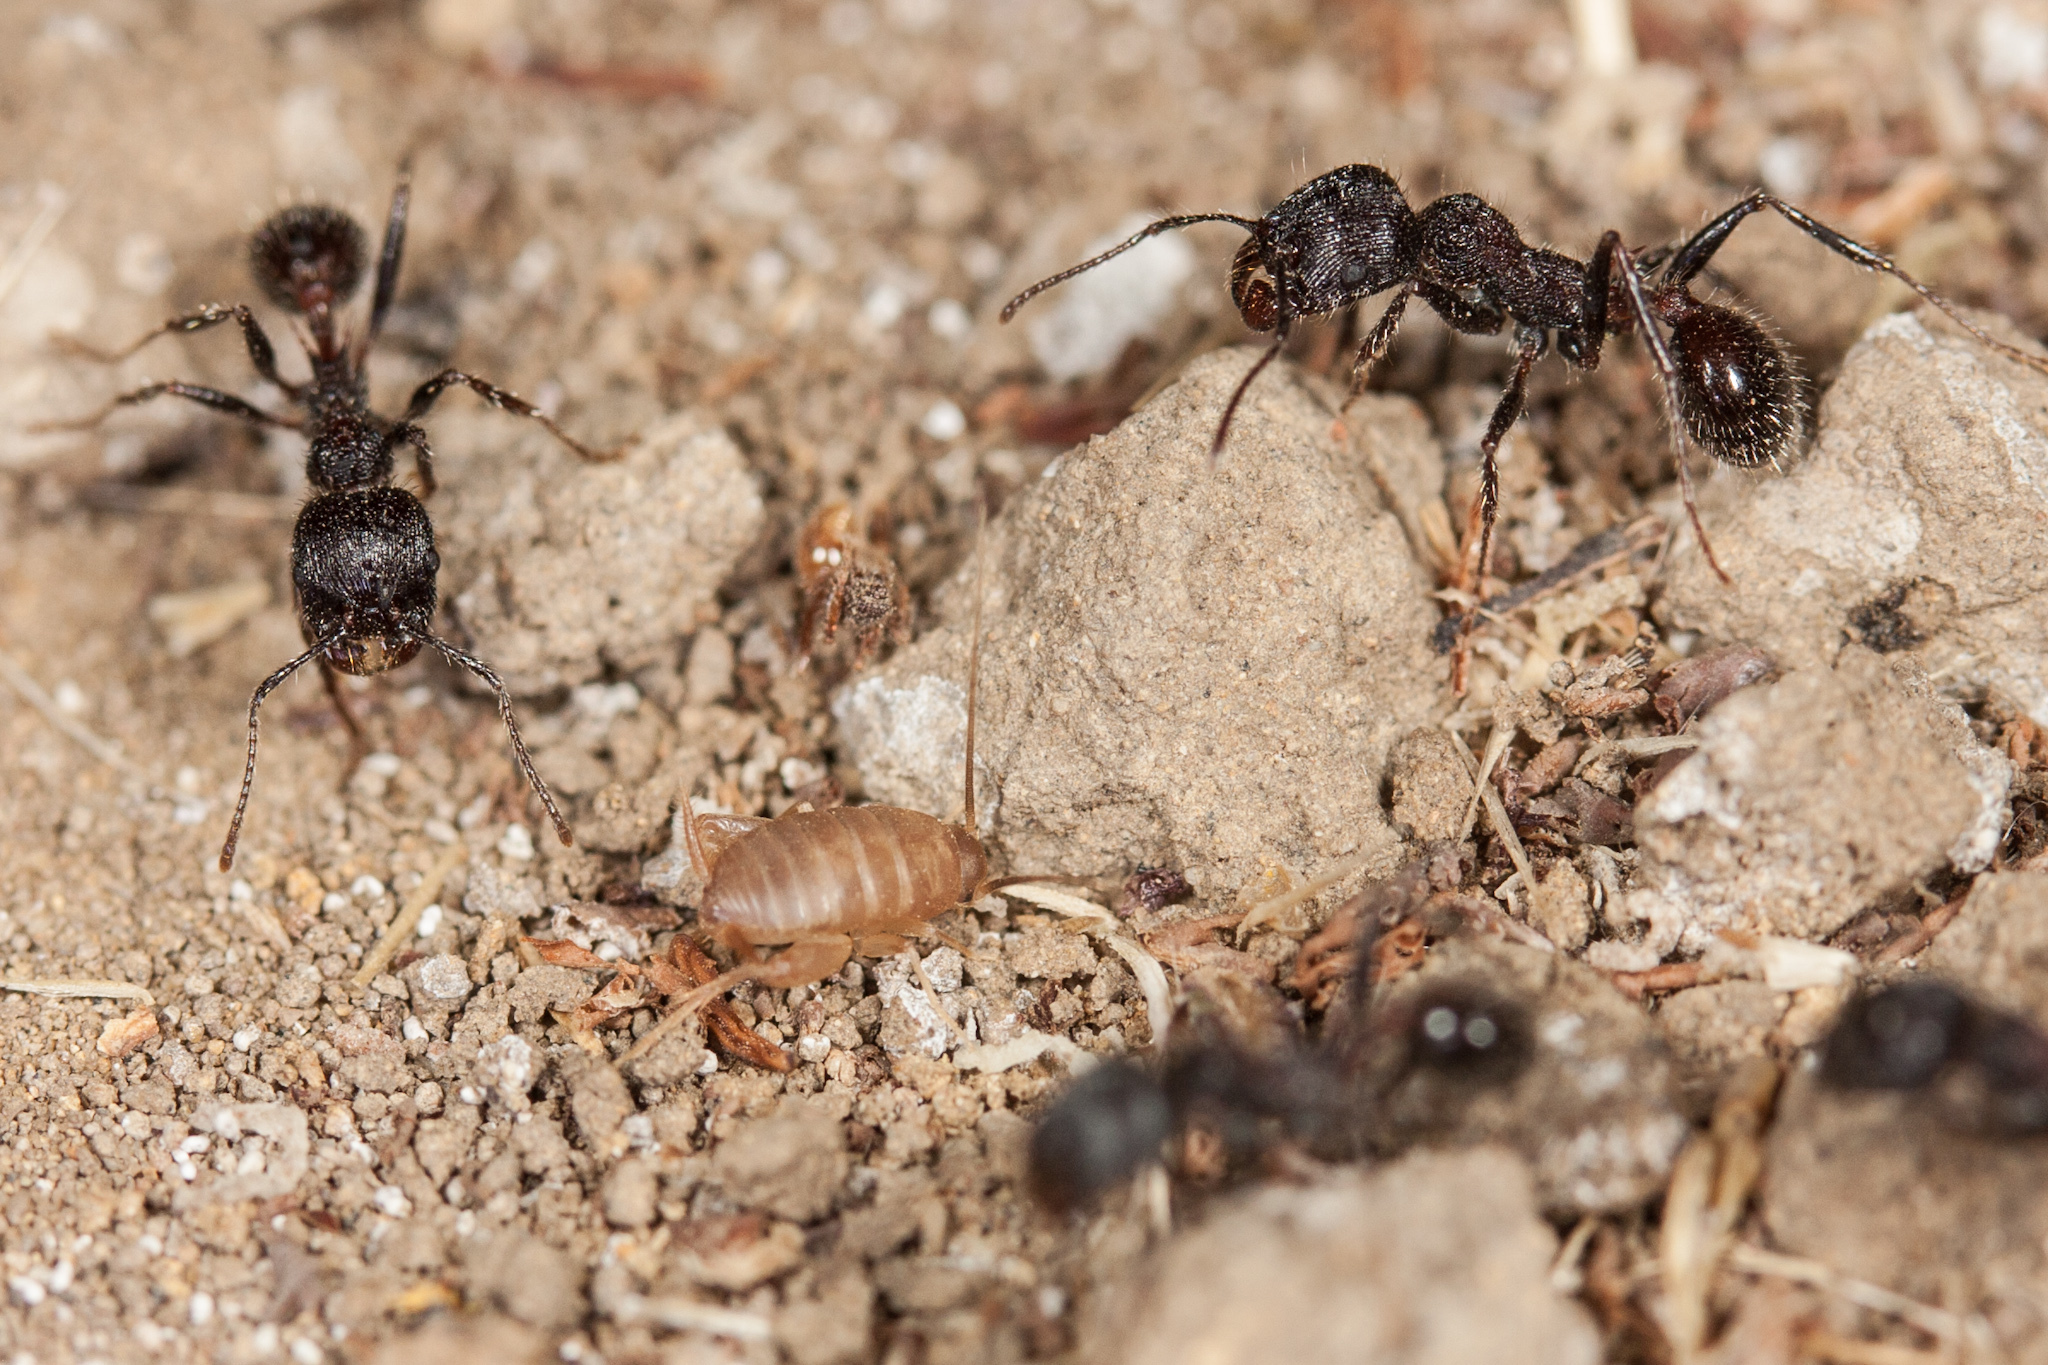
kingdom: Animalia
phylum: Arthropoda
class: Insecta
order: Hymenoptera
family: Formicidae
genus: Veromessor
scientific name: Veromessor andrei
